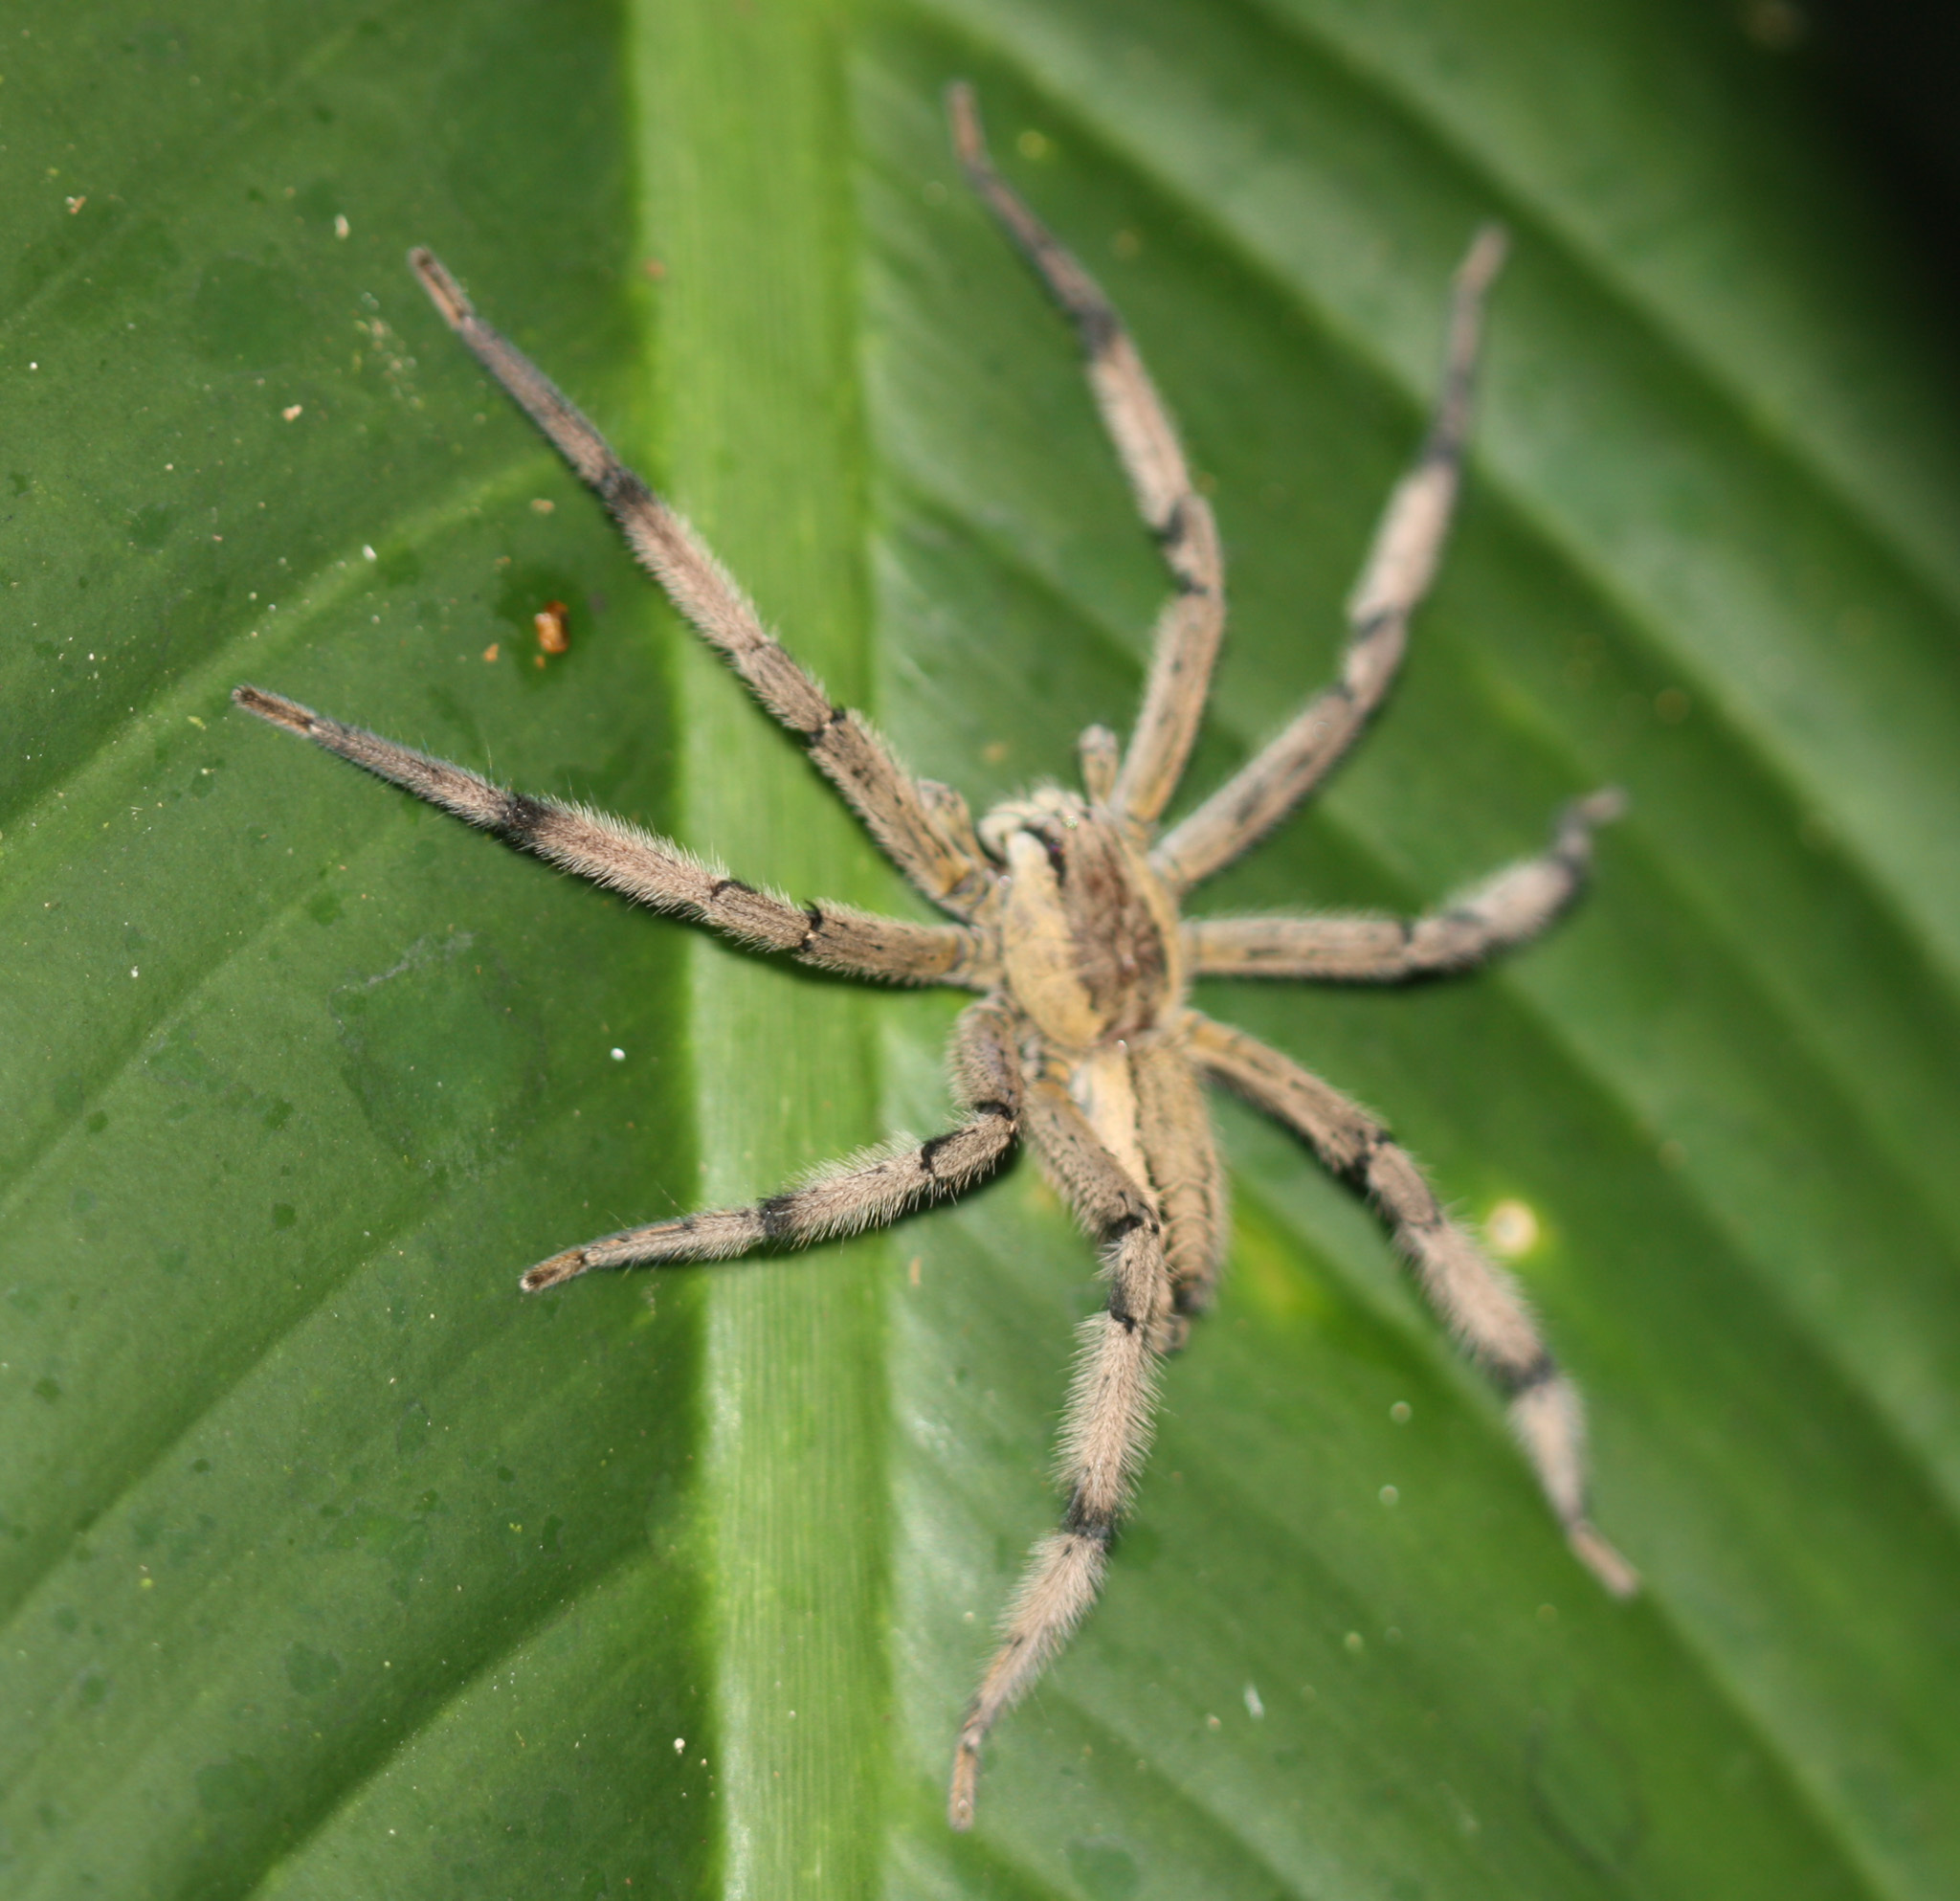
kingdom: Animalia
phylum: Arthropoda
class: Arachnida
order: Araneae
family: Trechaleidae
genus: Cupiennius
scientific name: Cupiennius getazi
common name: Wandering spiders
